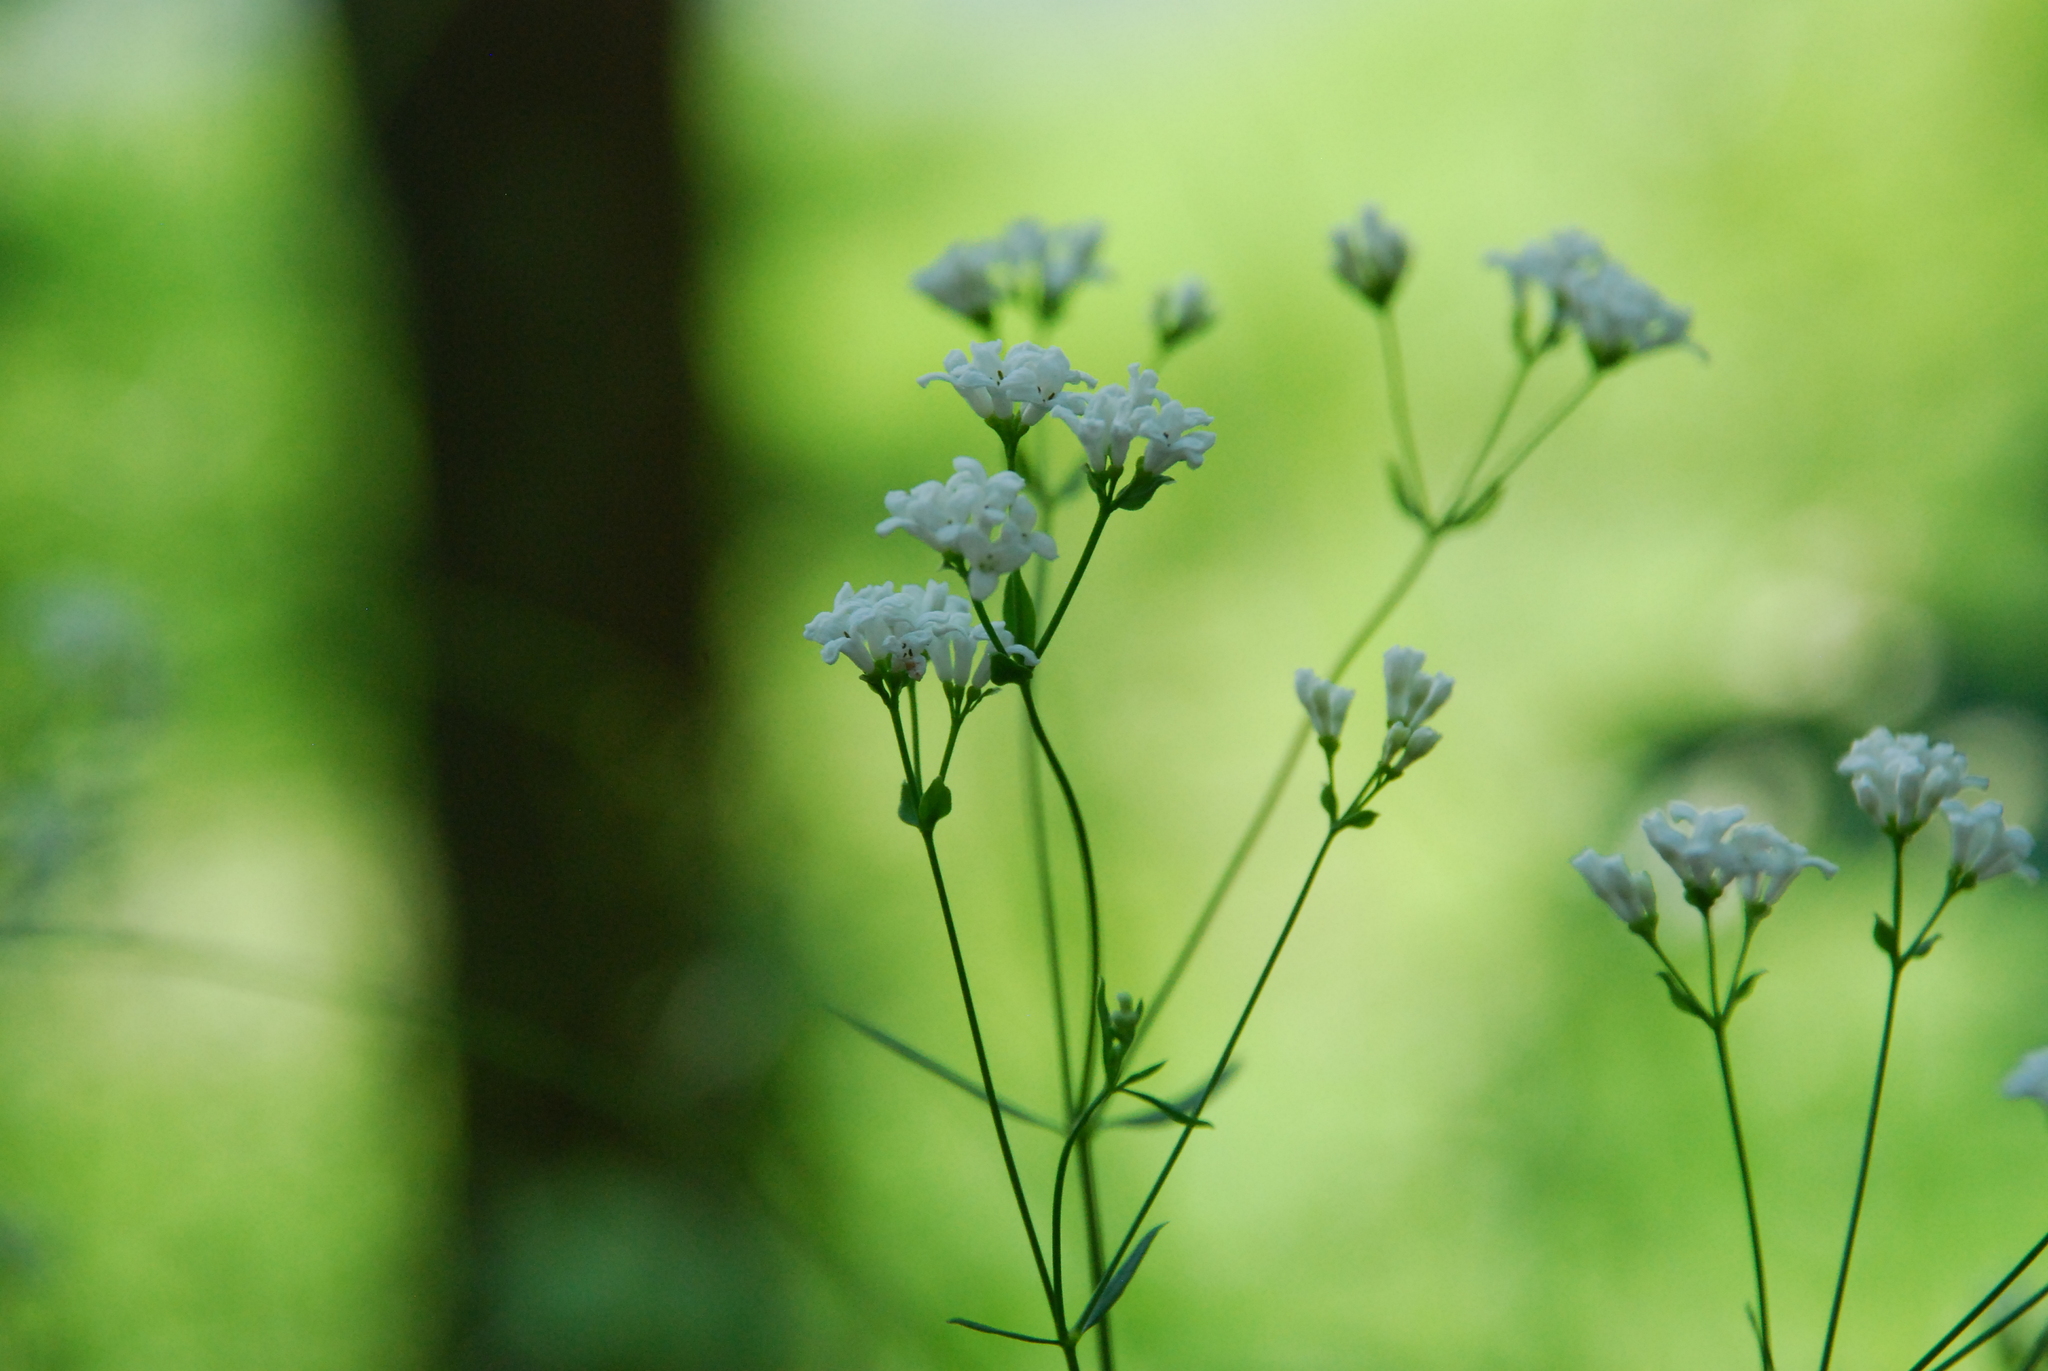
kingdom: Plantae
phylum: Tracheophyta
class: Magnoliopsida
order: Gentianales
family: Rubiaceae
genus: Asperula
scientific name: Asperula tinctoria
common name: Dyer's woodruff
